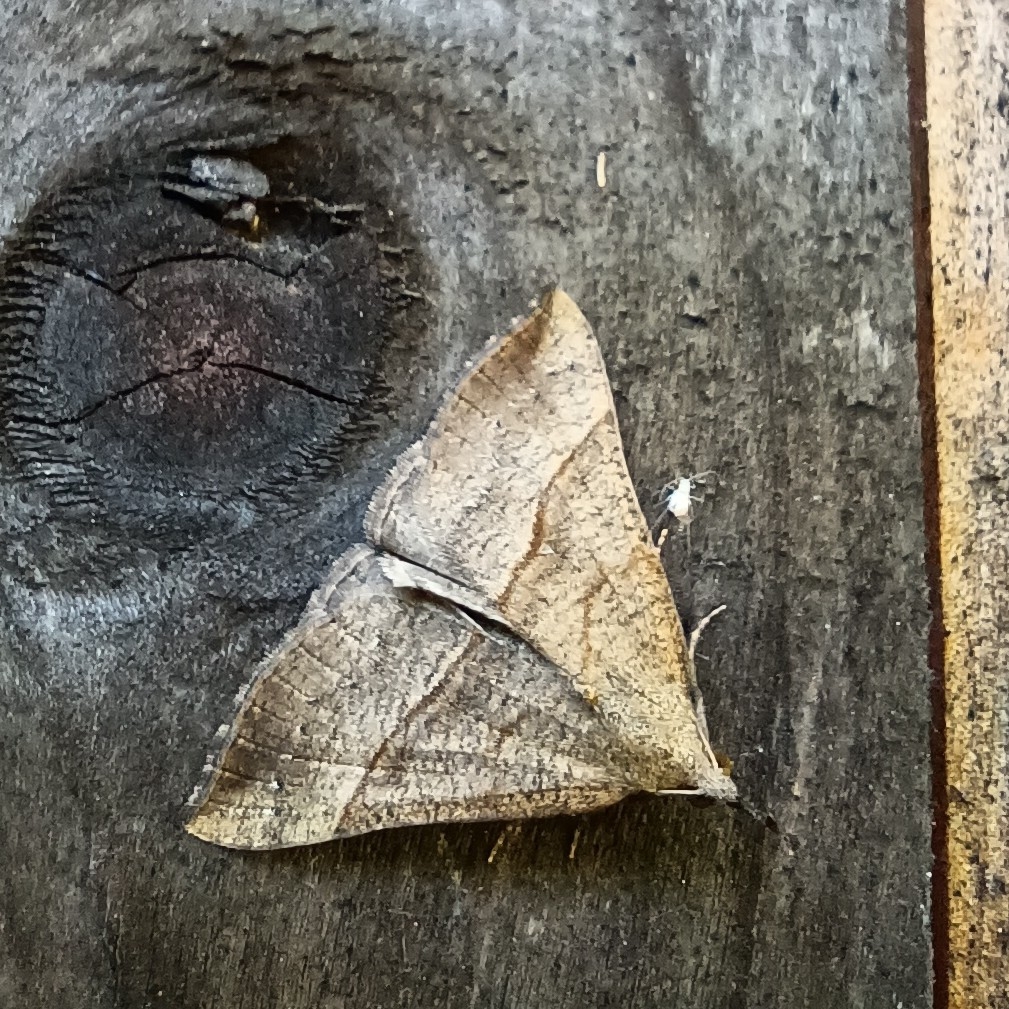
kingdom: Animalia
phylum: Arthropoda
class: Insecta
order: Lepidoptera
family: Erebidae
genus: Hypena
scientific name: Hypena proboscidalis
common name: Snout
